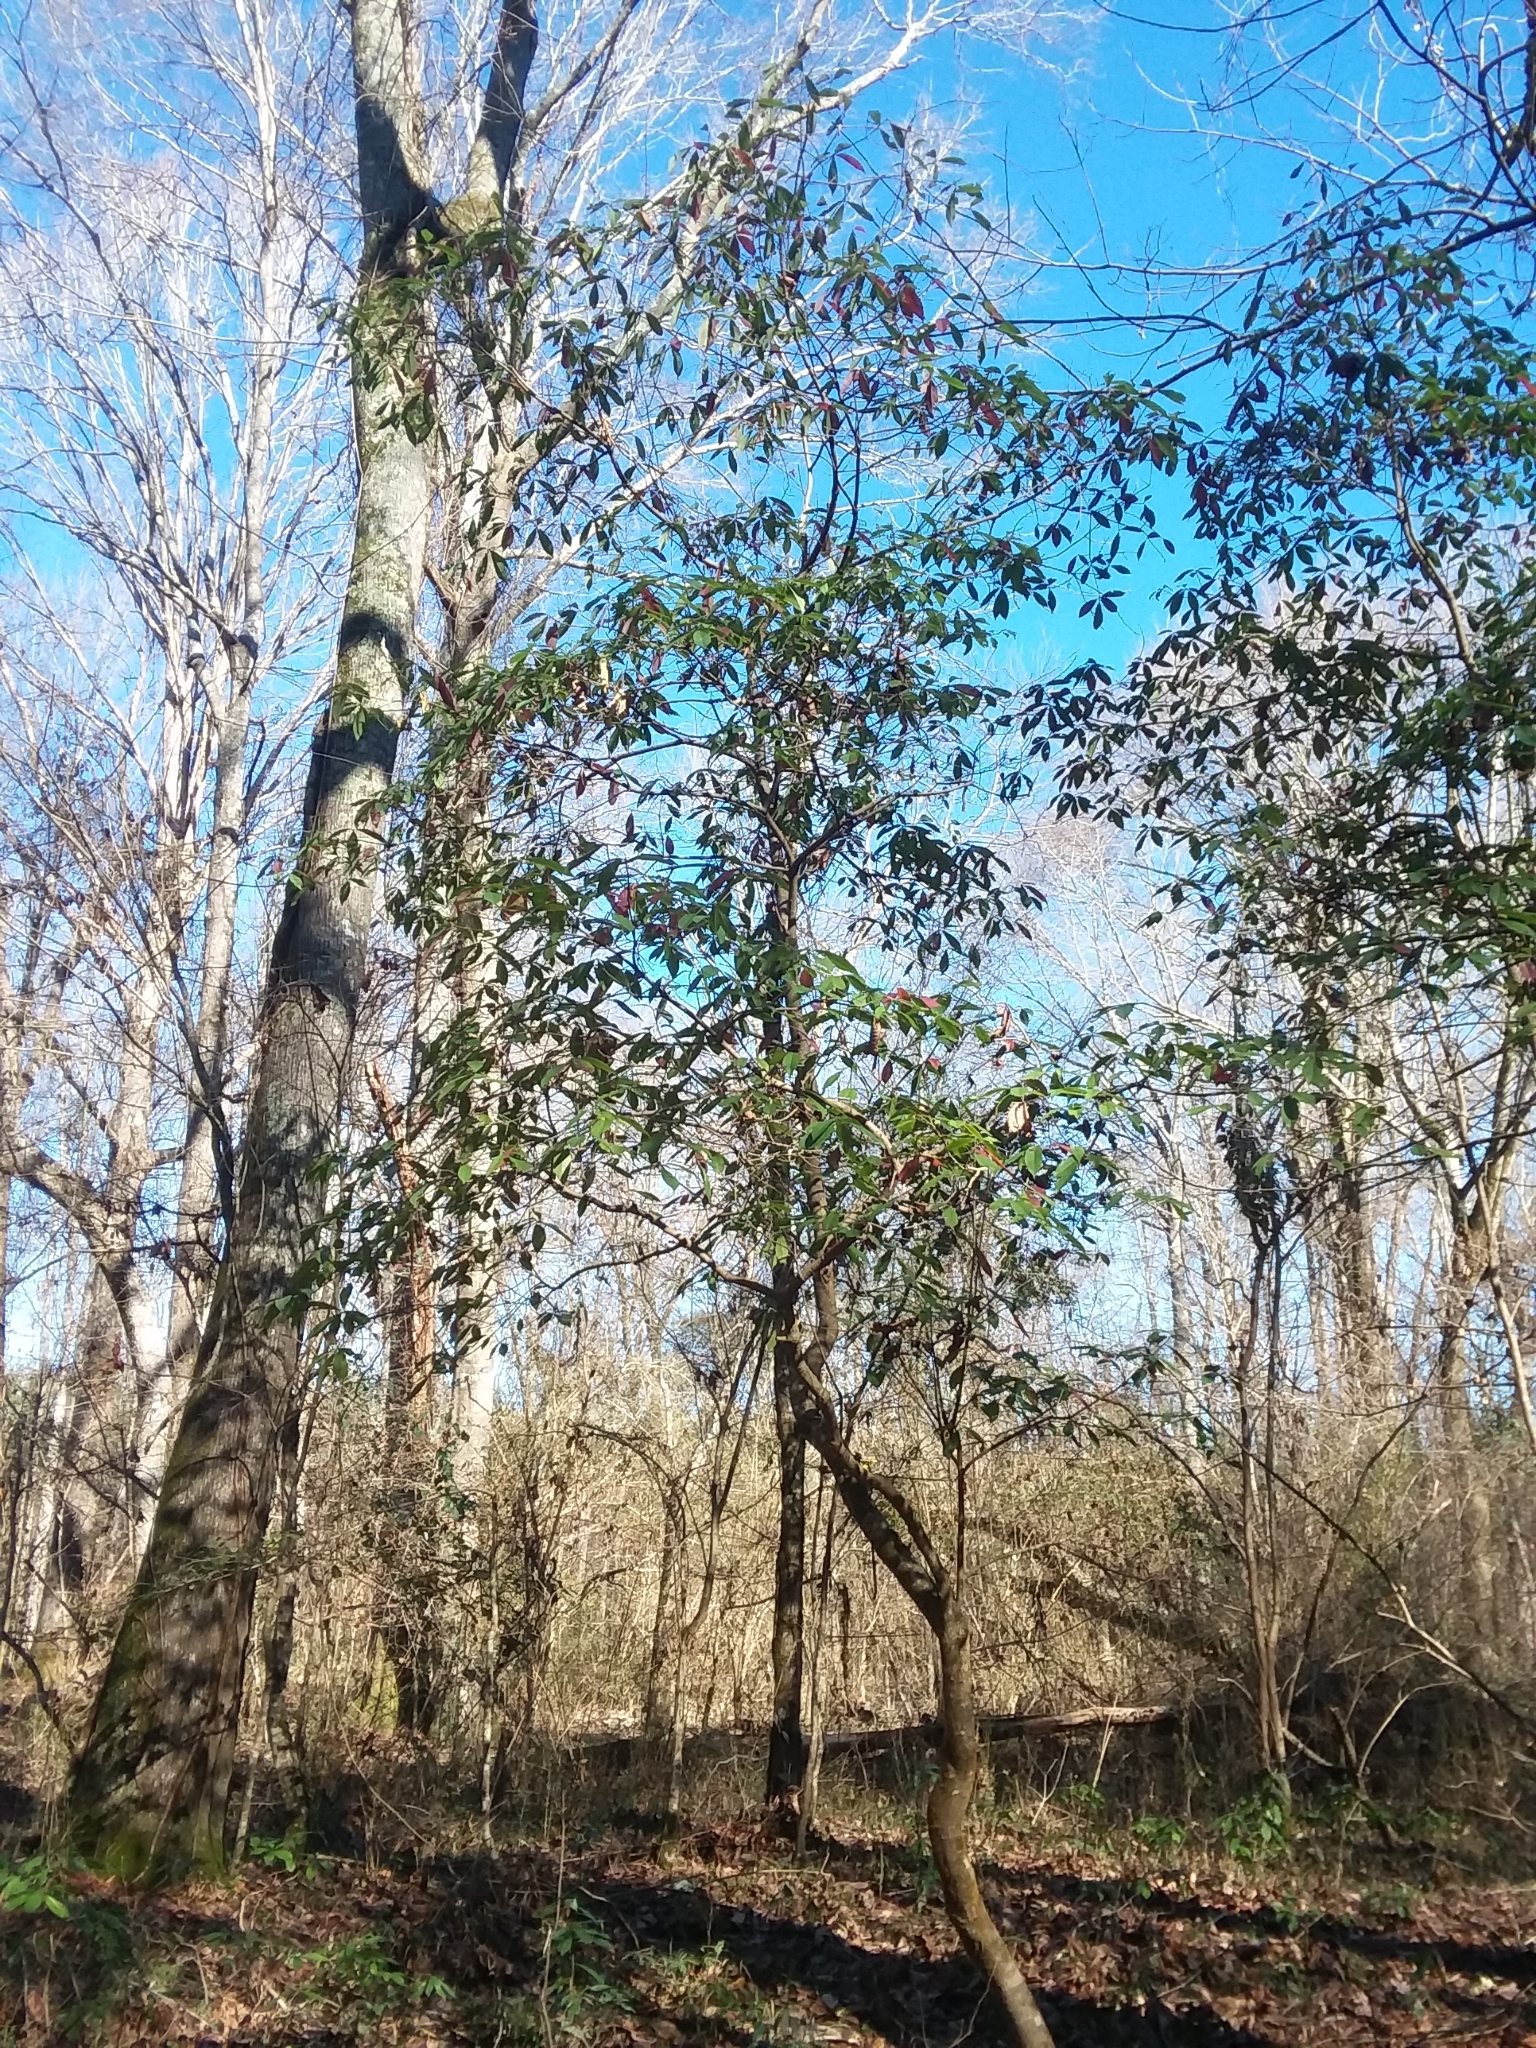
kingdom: Plantae
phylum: Tracheophyta
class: Magnoliopsida
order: Ericales
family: Symplocaceae
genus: Symplocos
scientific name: Symplocos tinctoria
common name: Horse-sugar
